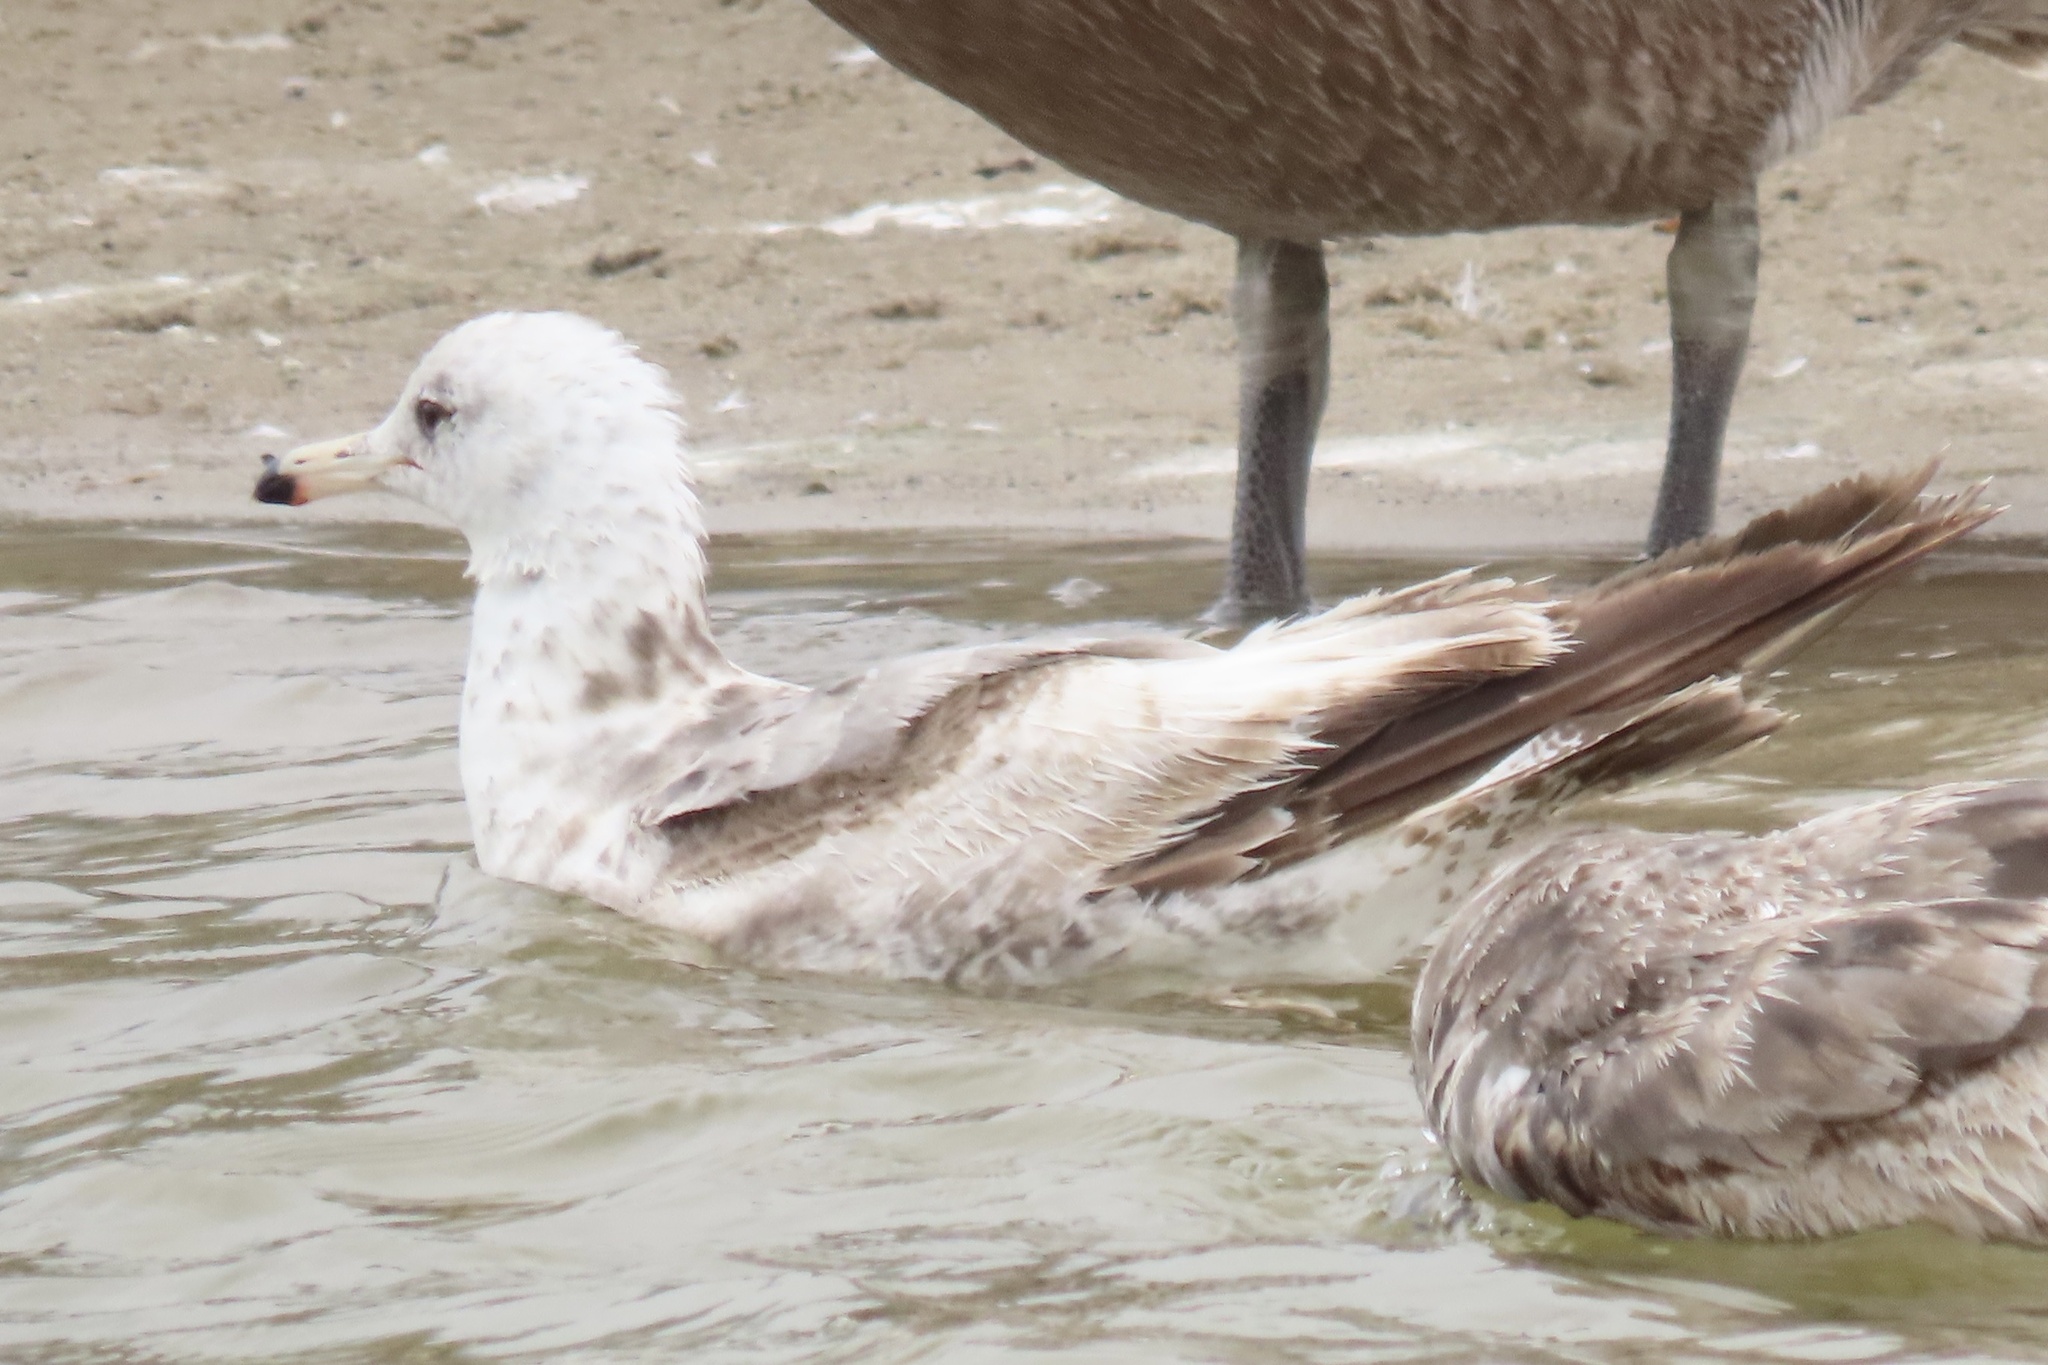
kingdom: Animalia
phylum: Chordata
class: Aves
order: Charadriiformes
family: Laridae
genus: Larus
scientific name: Larus californicus
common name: California gull
